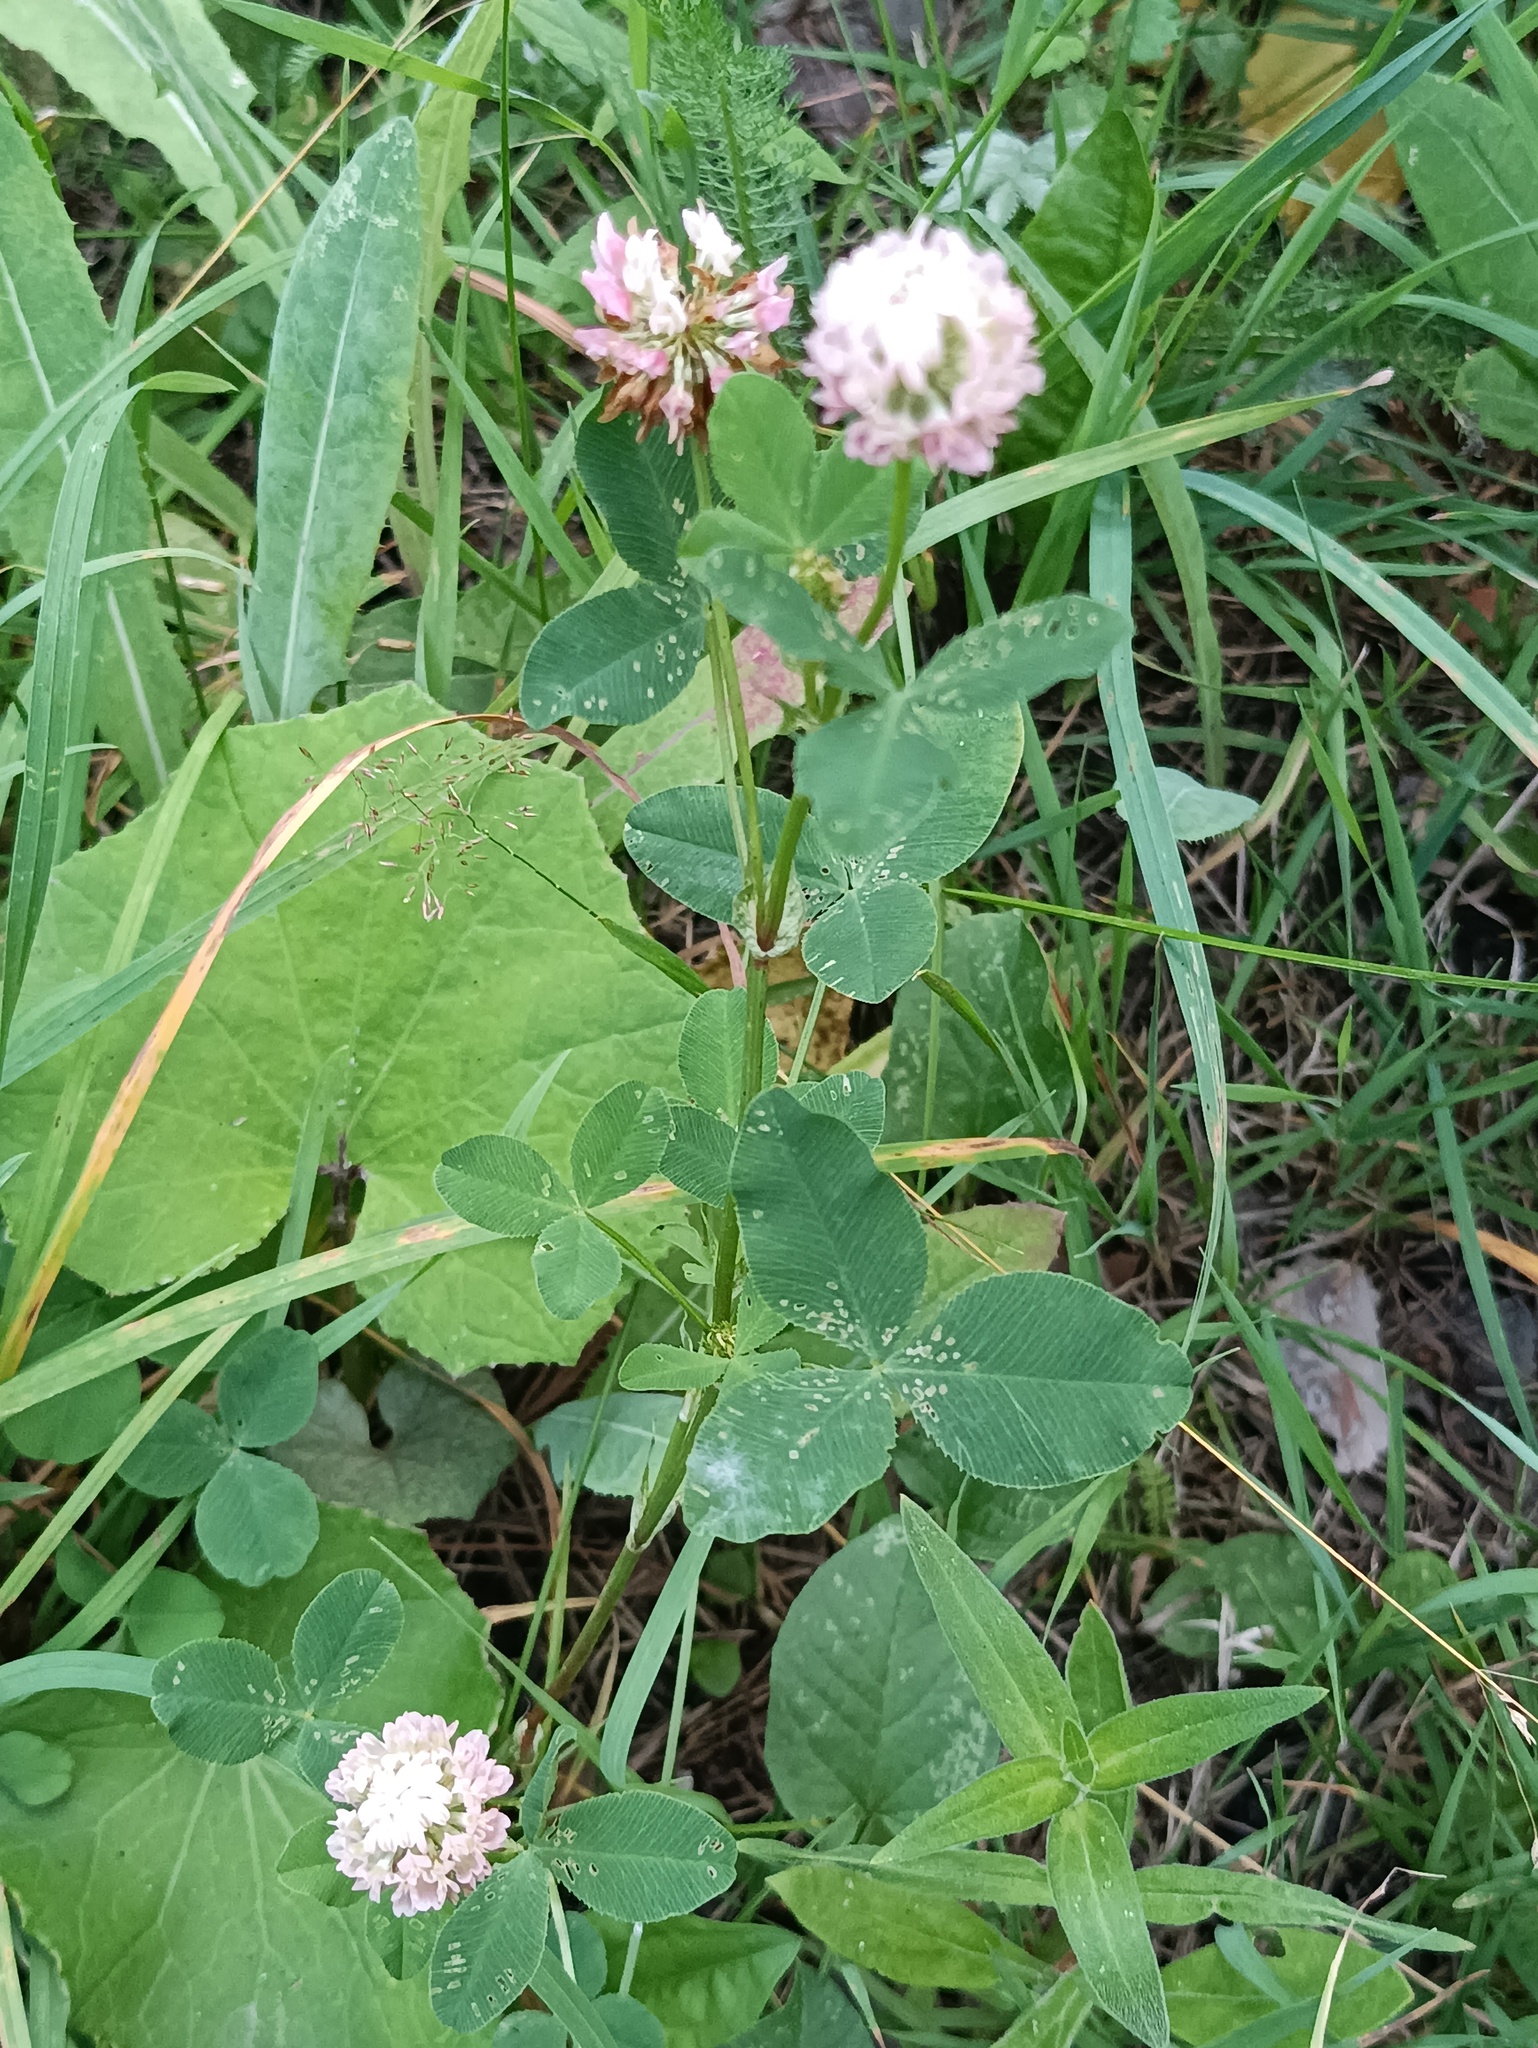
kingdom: Plantae
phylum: Tracheophyta
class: Magnoliopsida
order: Fabales
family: Fabaceae
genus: Trifolium
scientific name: Trifolium hybridum
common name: Alsike clover
